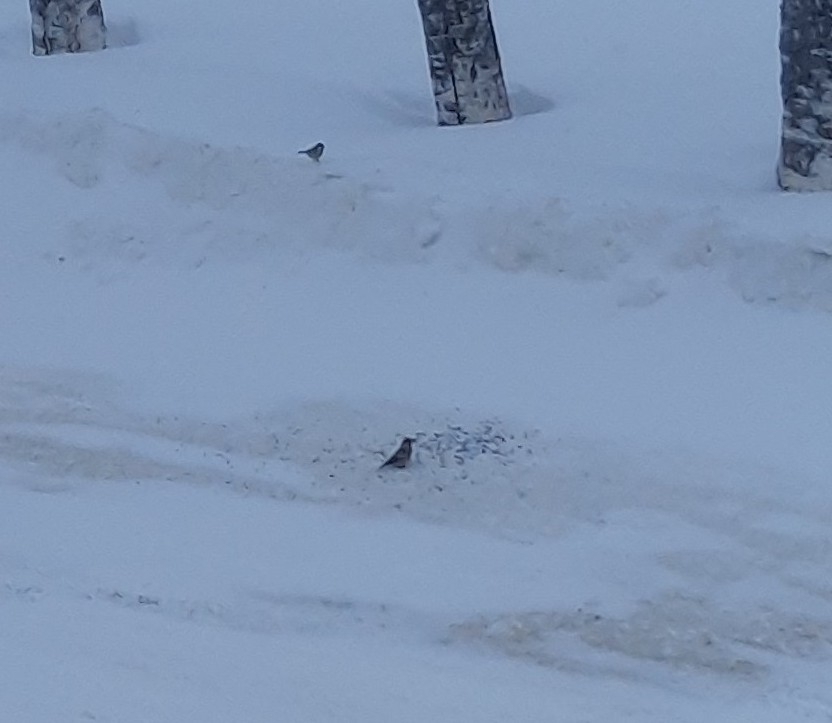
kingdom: Animalia
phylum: Chordata
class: Aves
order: Passeriformes
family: Fringillidae
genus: Coccothraustes
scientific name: Coccothraustes coccothraustes
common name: Hawfinch
